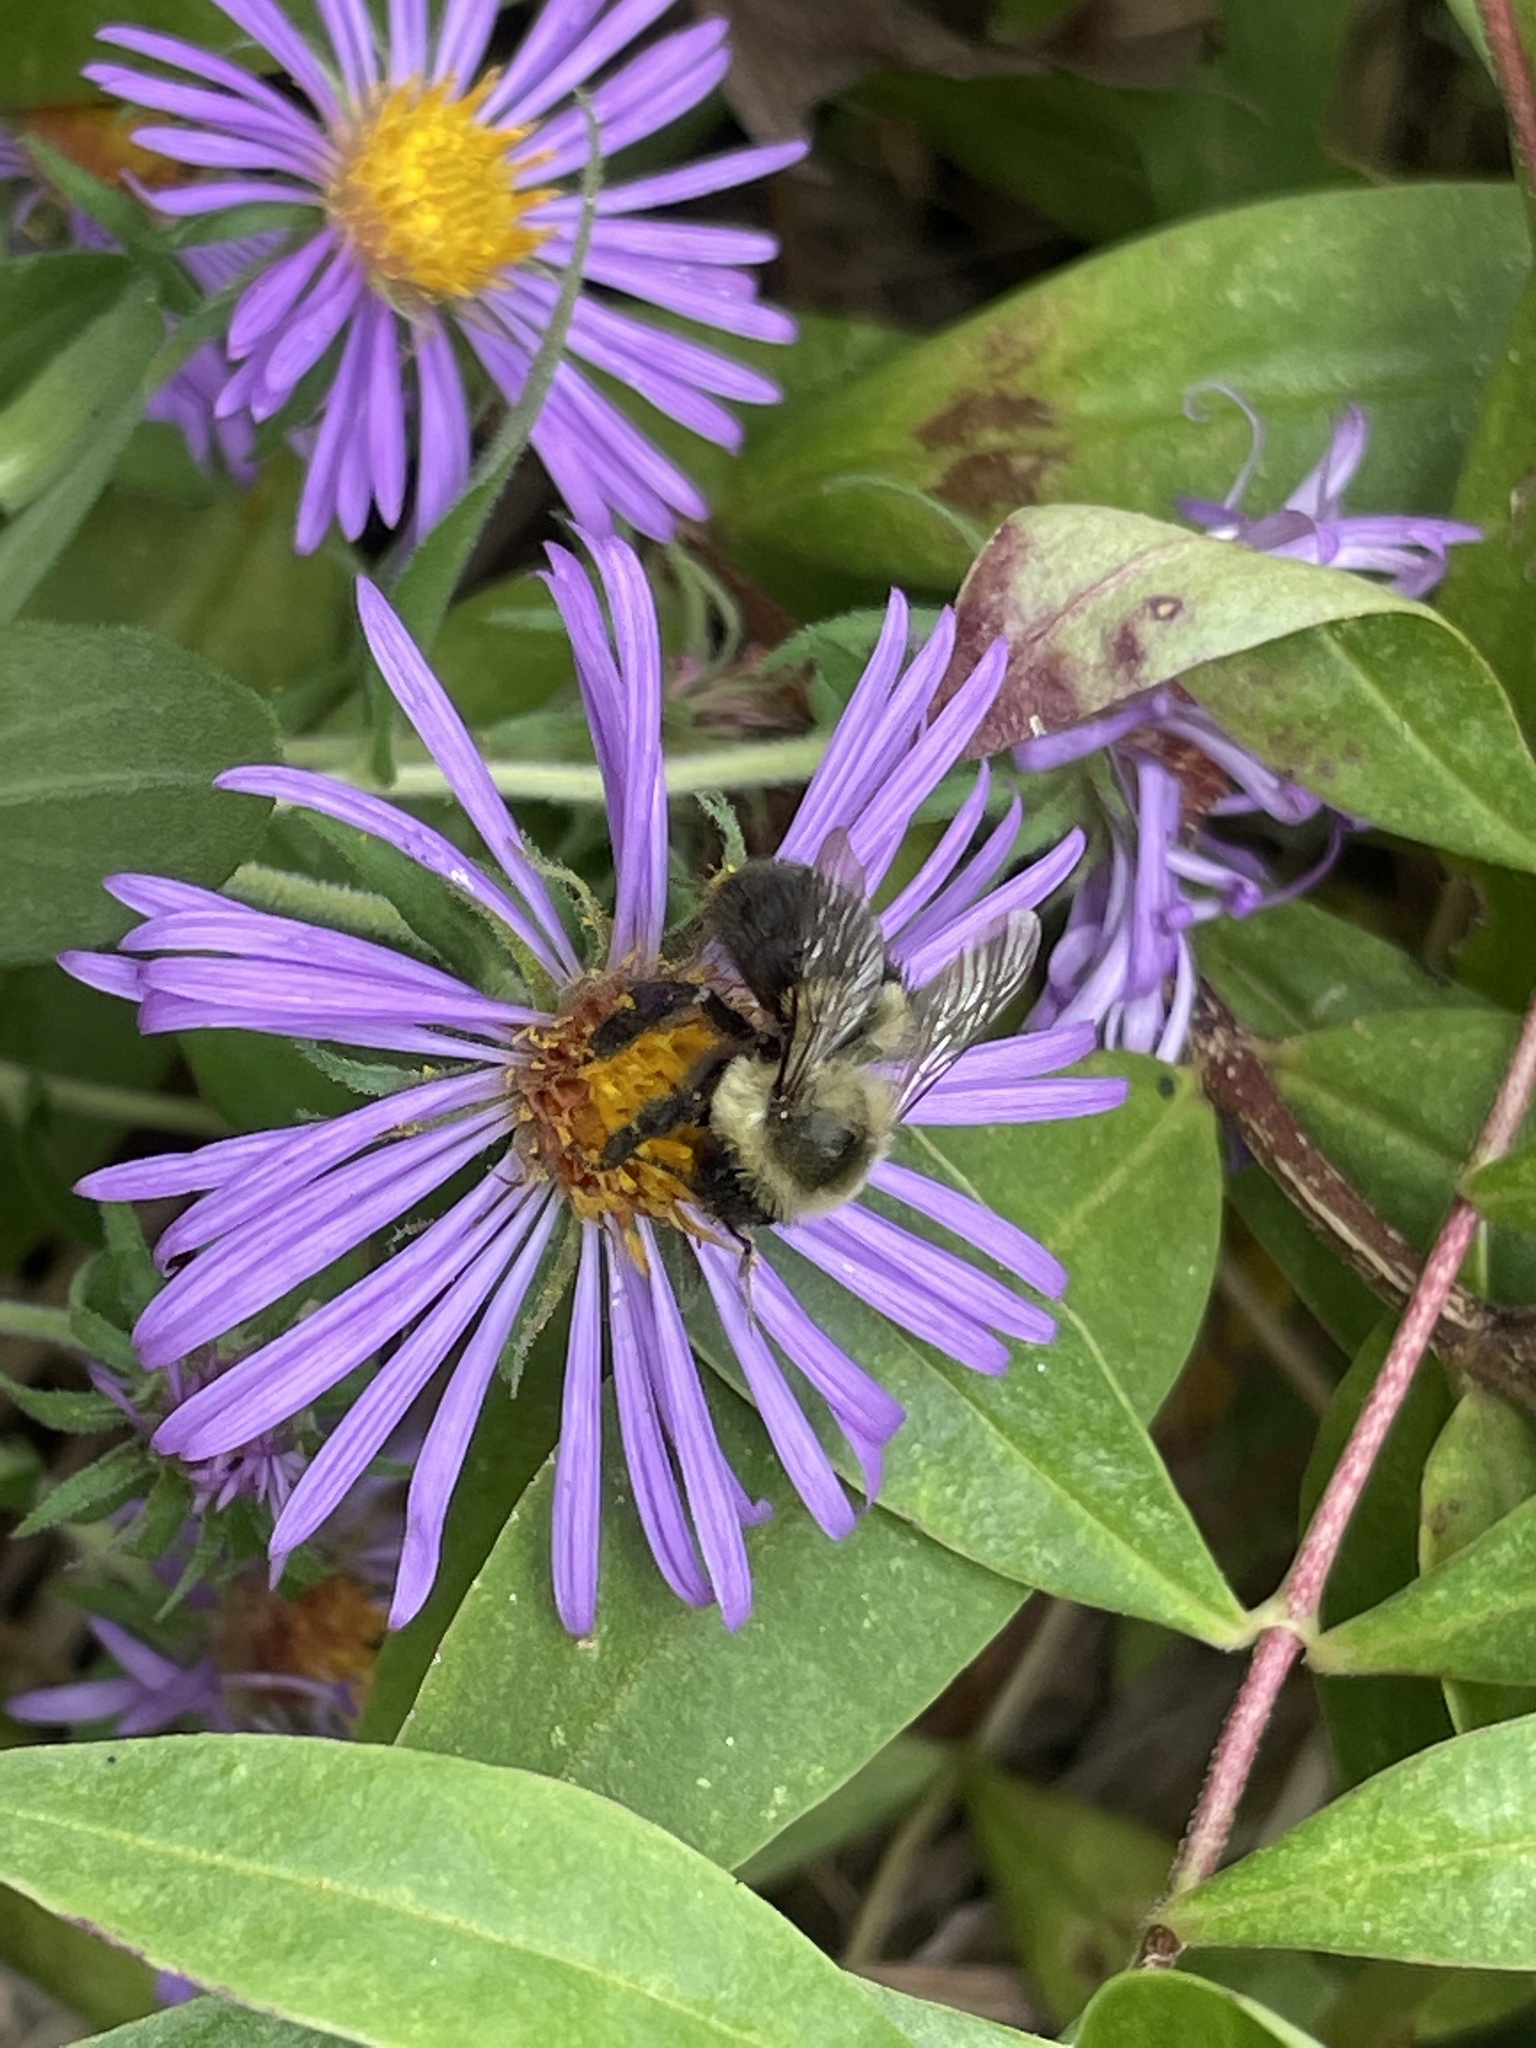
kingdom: Animalia
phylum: Arthropoda
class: Insecta
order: Hymenoptera
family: Apidae
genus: Bombus
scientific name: Bombus impatiens
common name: Common eastern bumble bee
